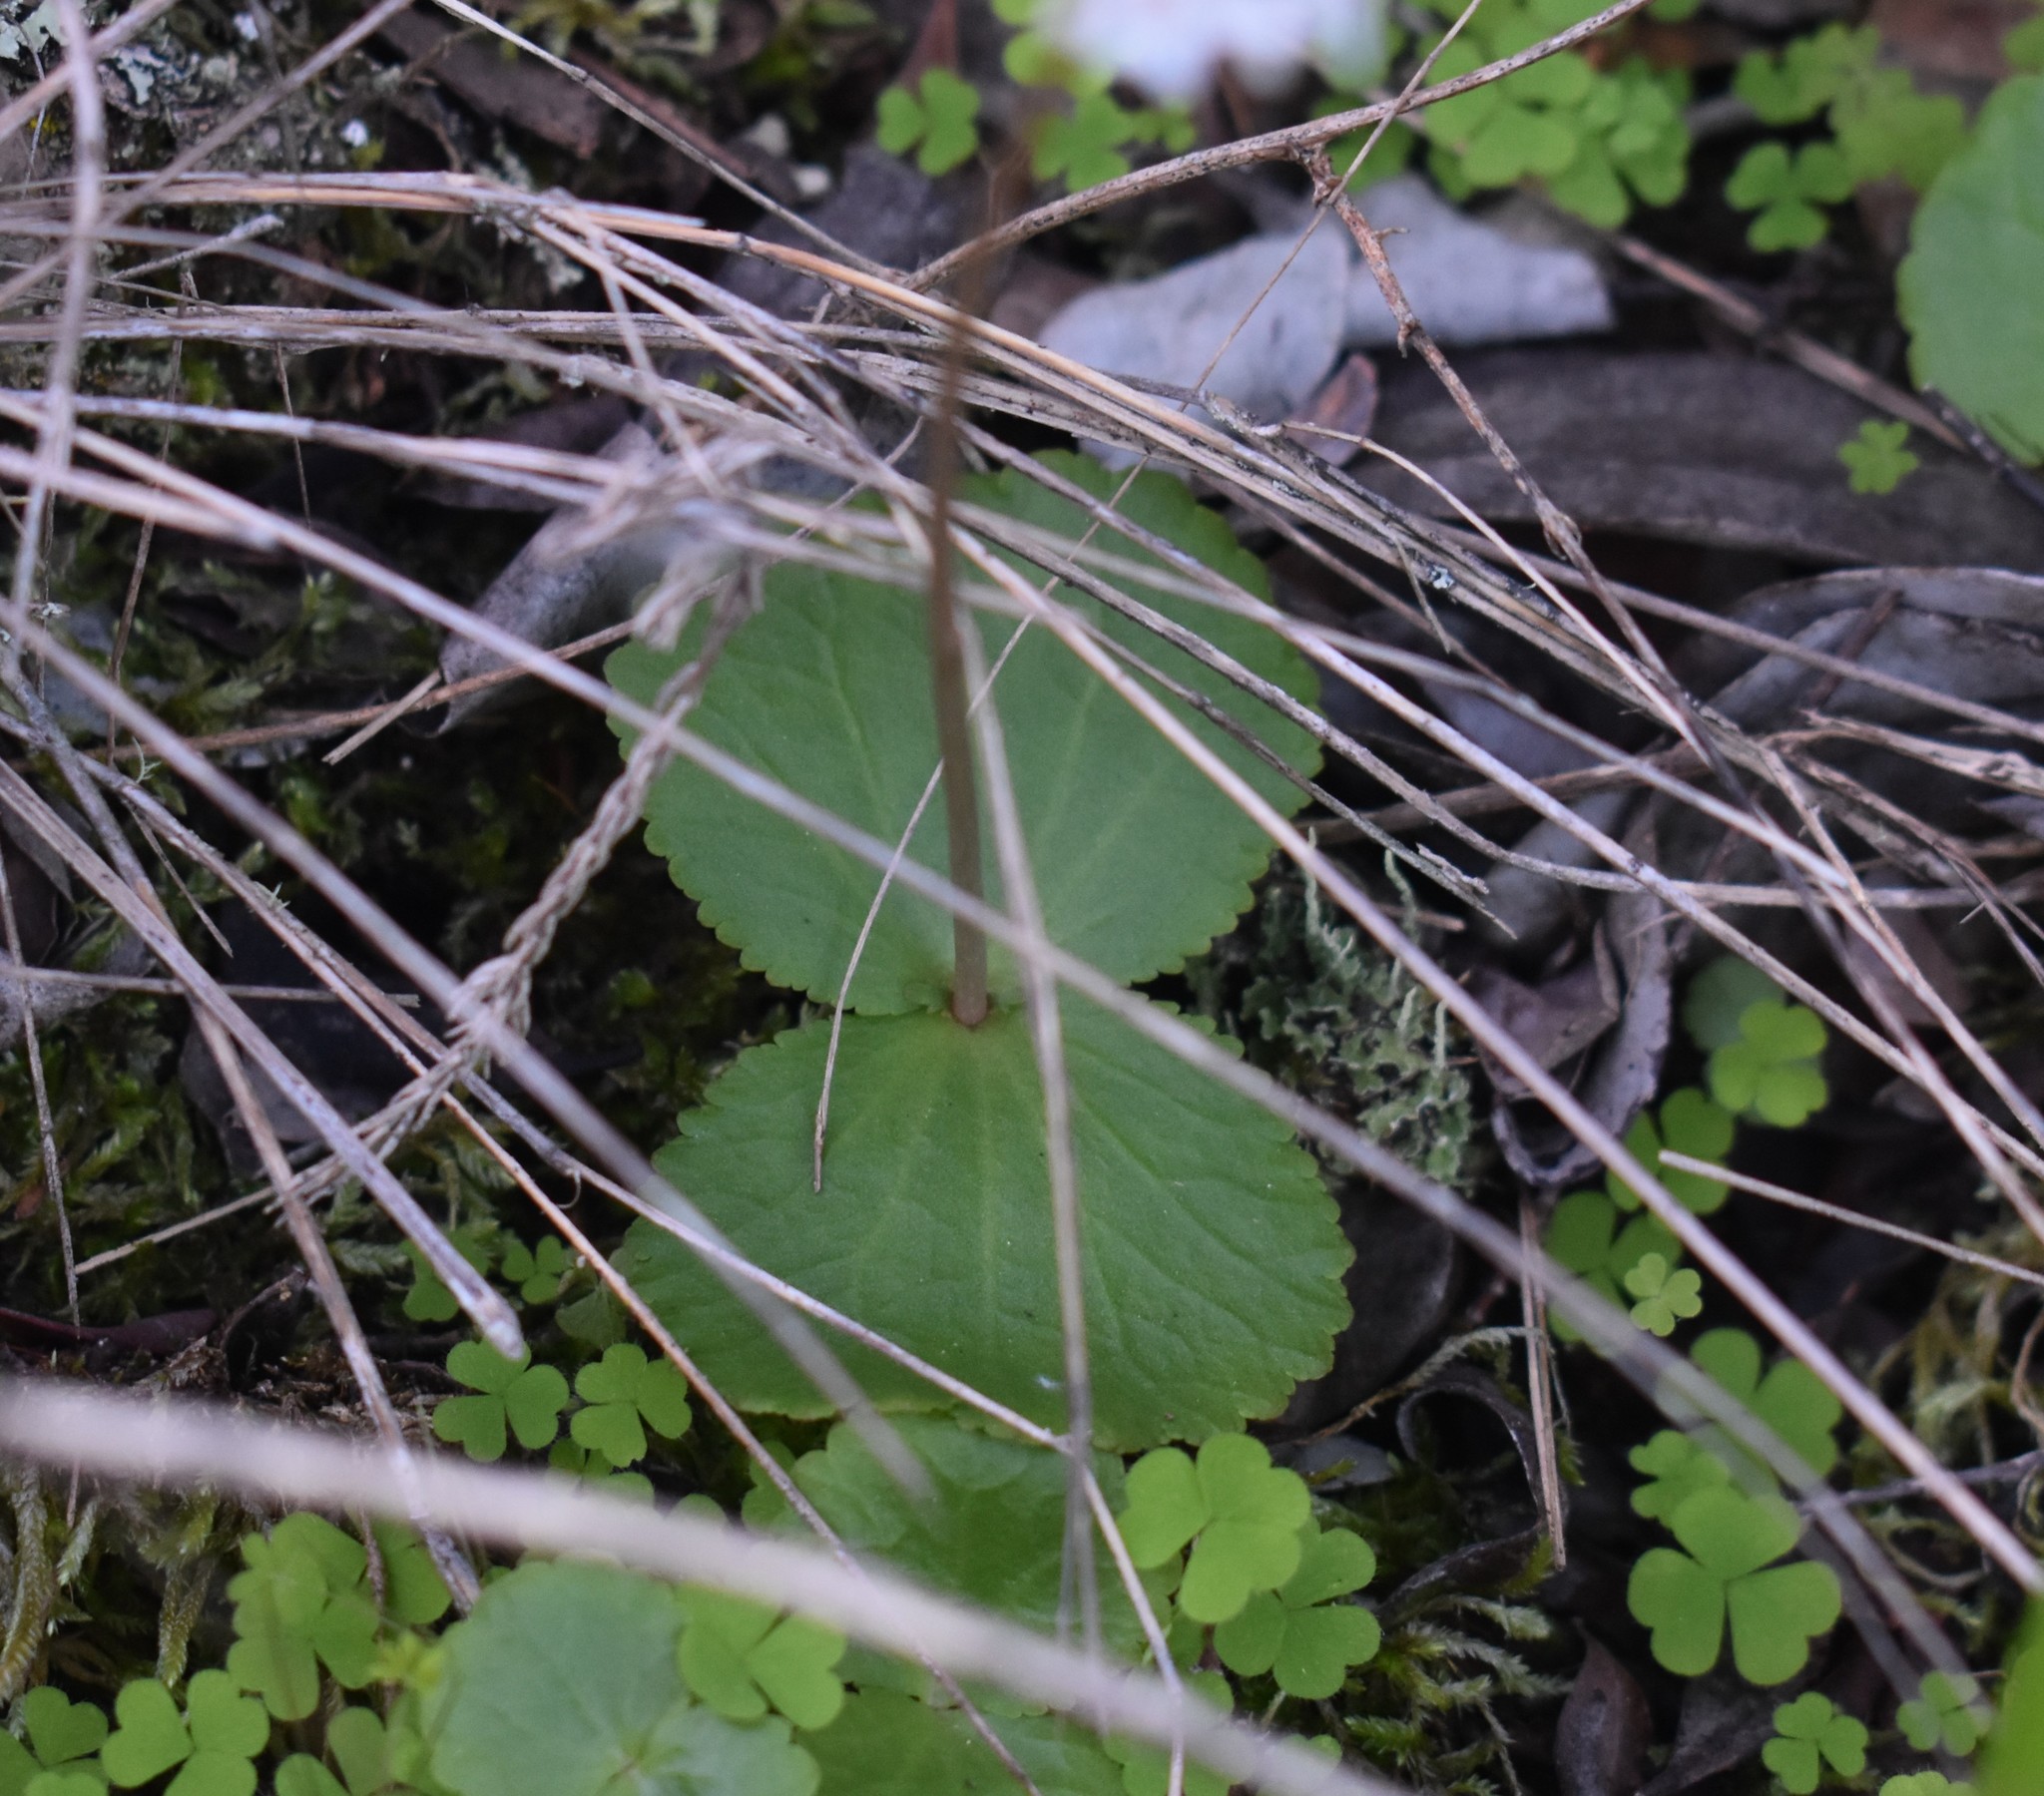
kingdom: Plantae
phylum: Tracheophyta
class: Magnoliopsida
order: Saxifragales
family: Crassulaceae
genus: Crassula
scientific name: Crassula saxifraga
